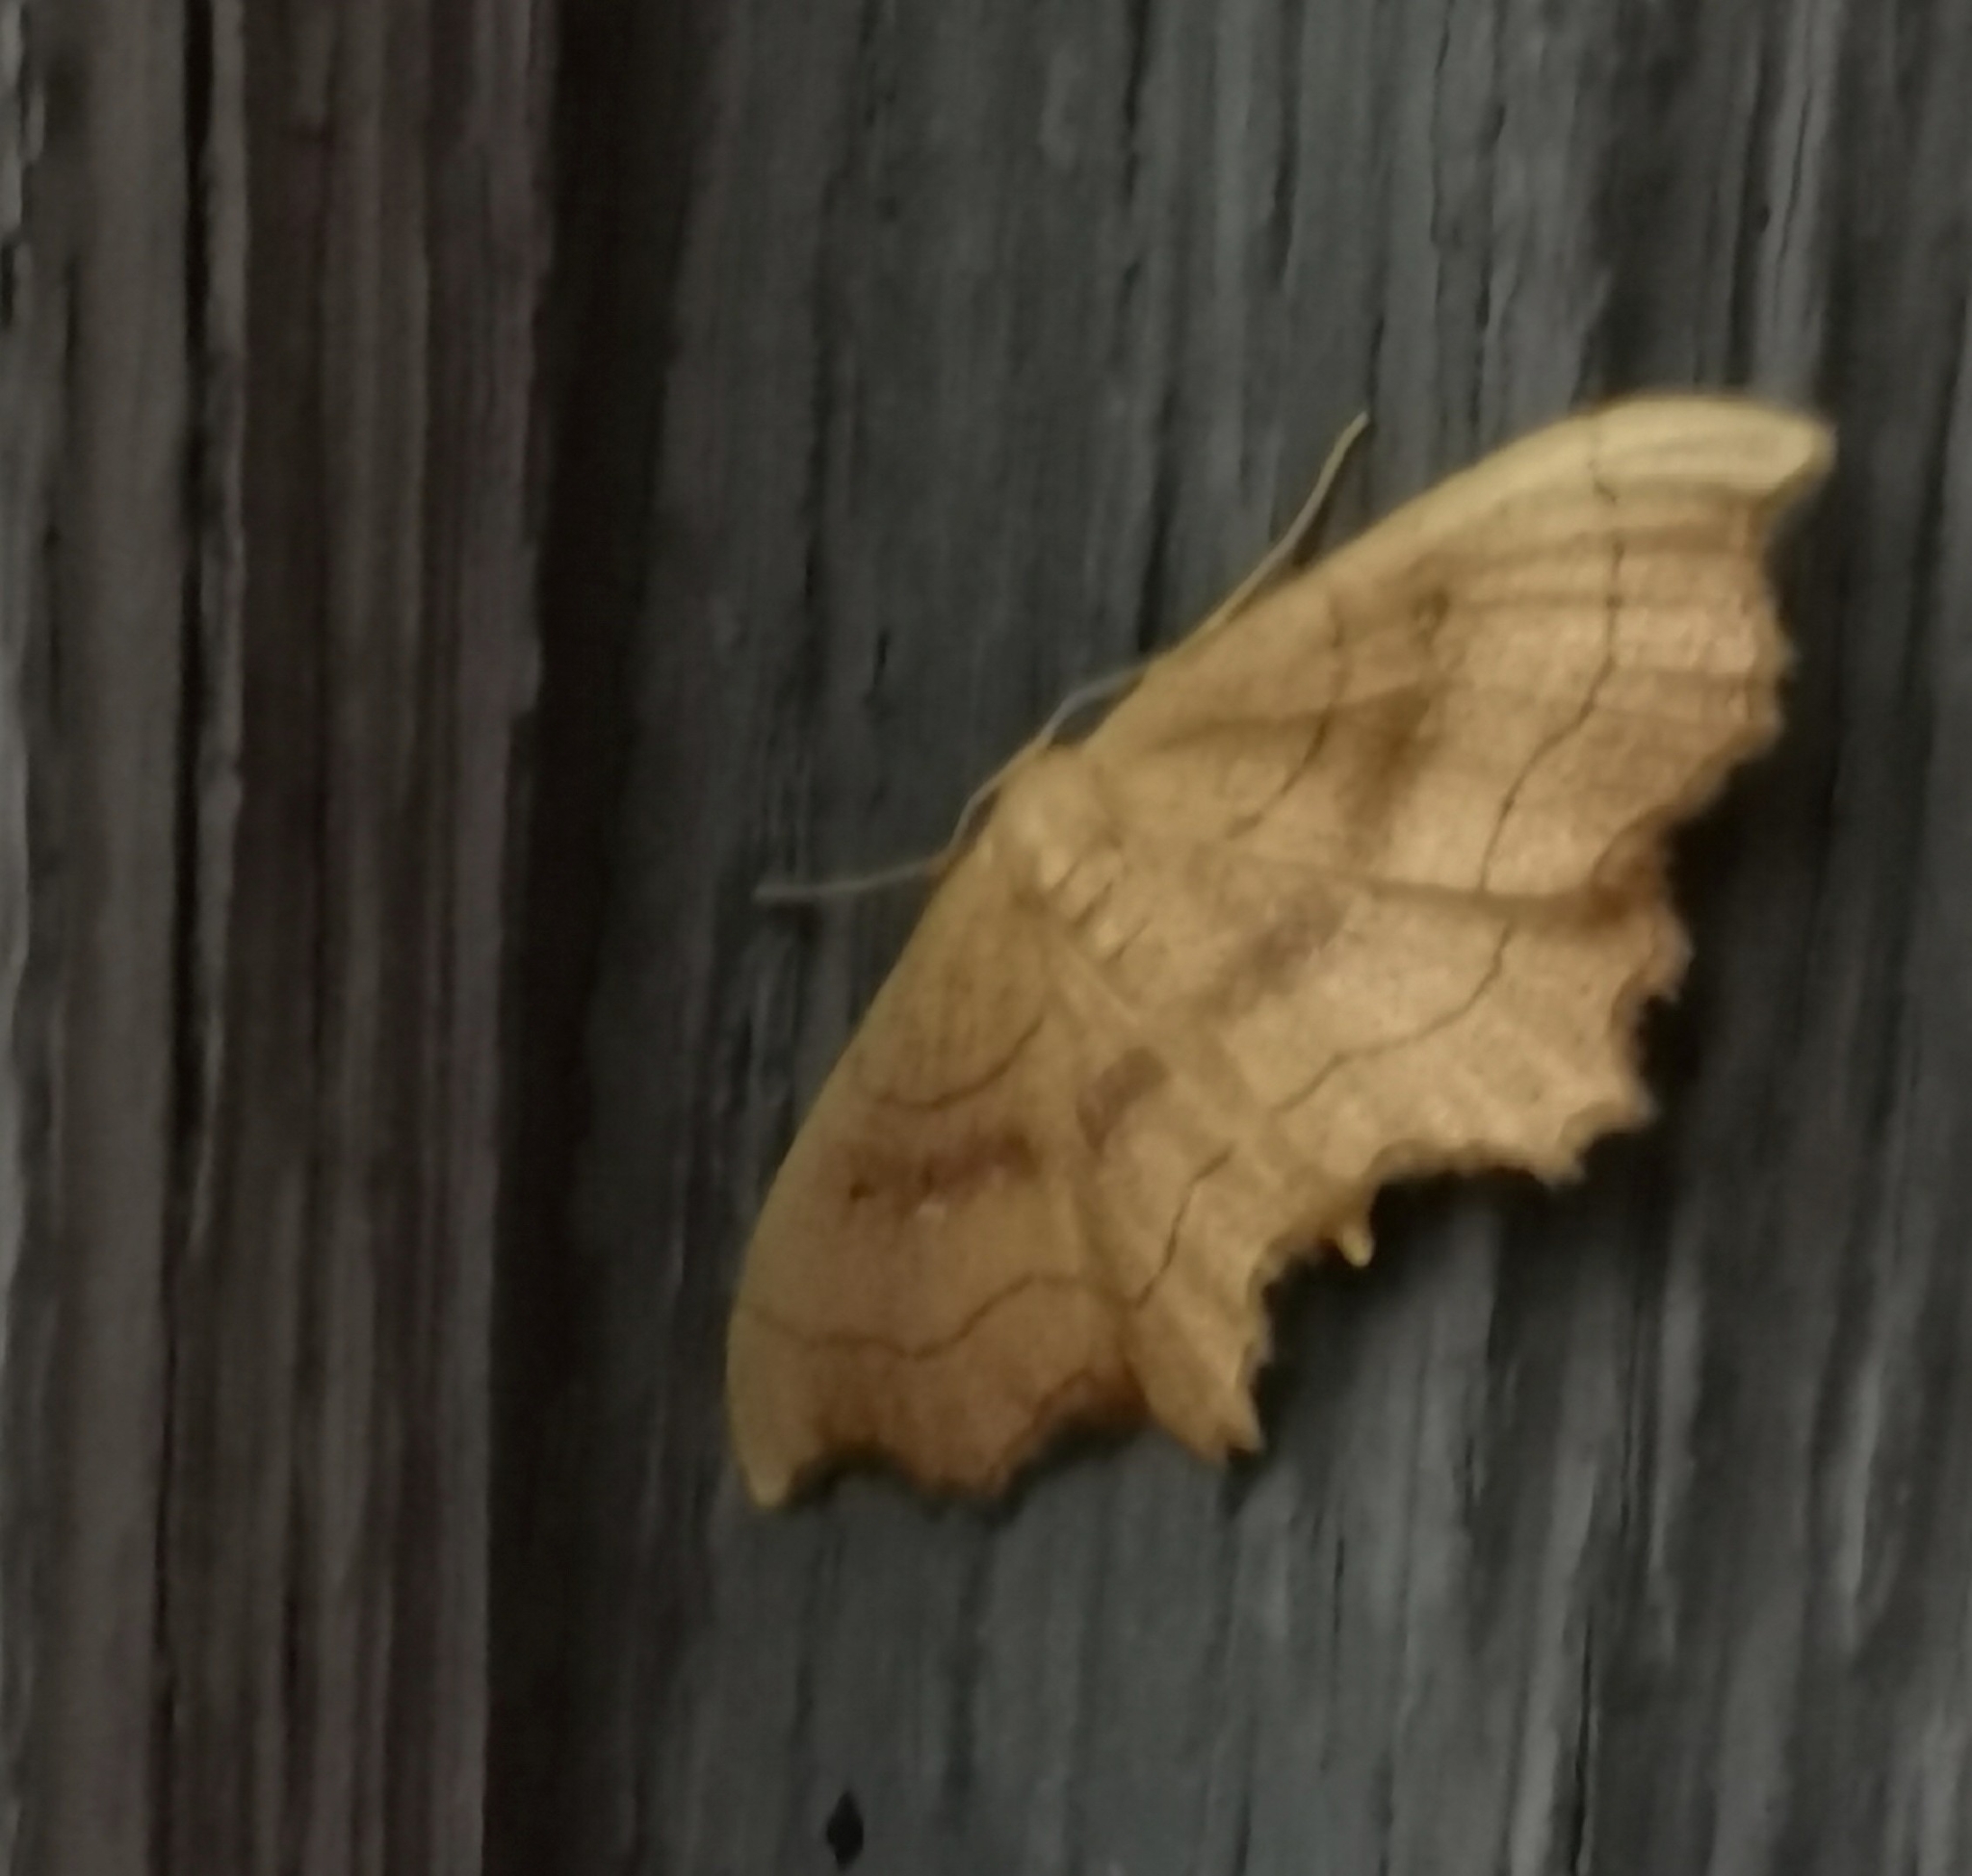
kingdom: Animalia
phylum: Arthropoda
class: Insecta
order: Lepidoptera
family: Geometridae
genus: Idaea
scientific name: Idaea emarginata
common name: Small scallop
